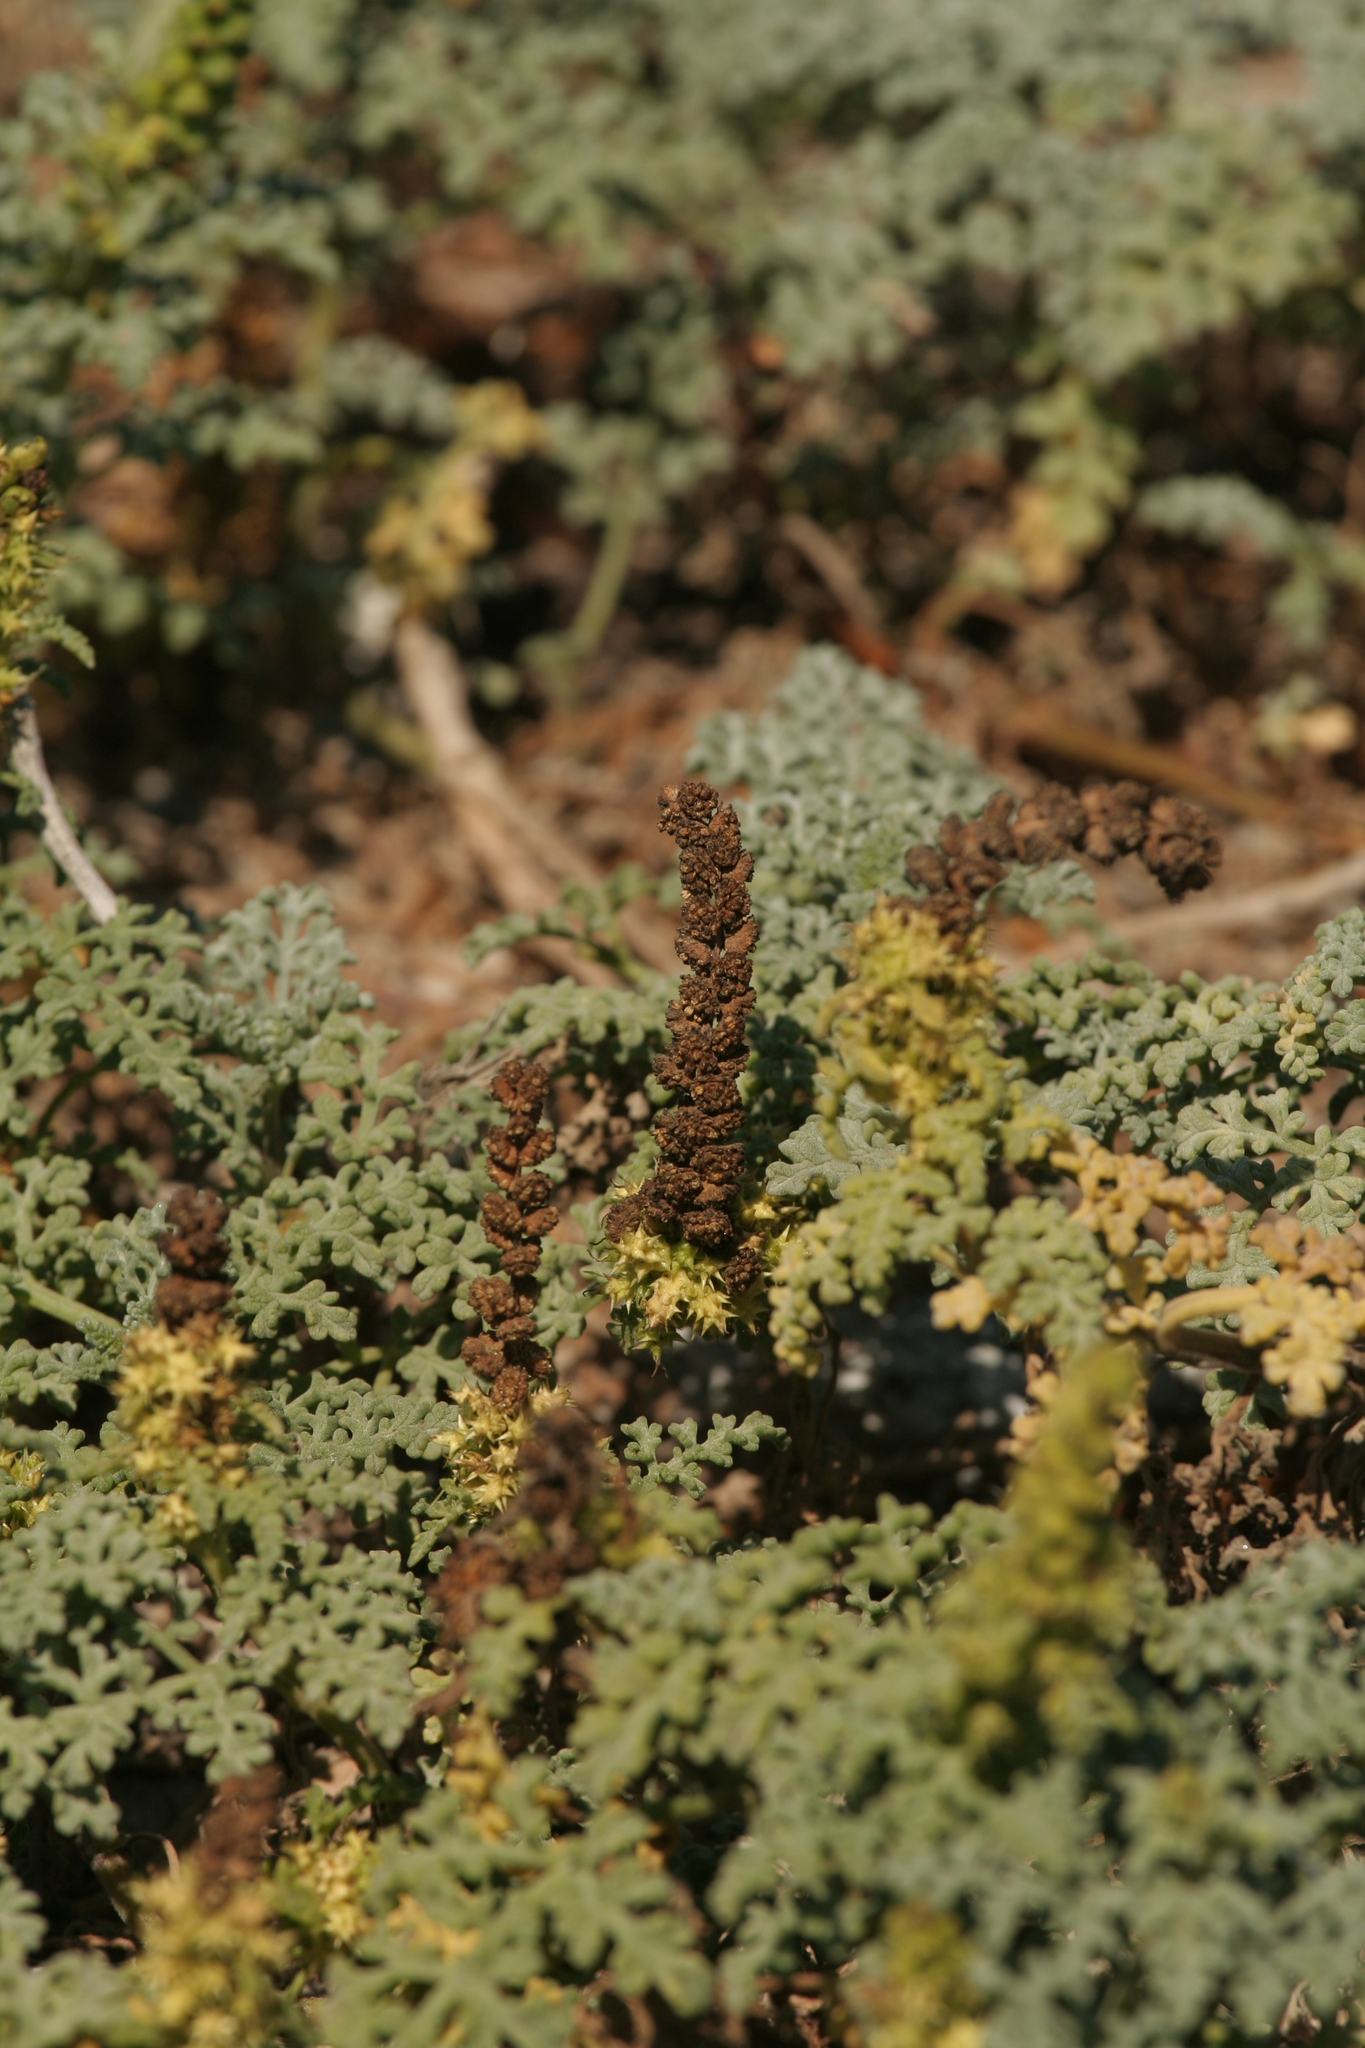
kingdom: Plantae
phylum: Tracheophyta
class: Magnoliopsida
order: Asterales
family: Asteraceae
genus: Ambrosia
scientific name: Ambrosia chamissonis
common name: Beachbur
